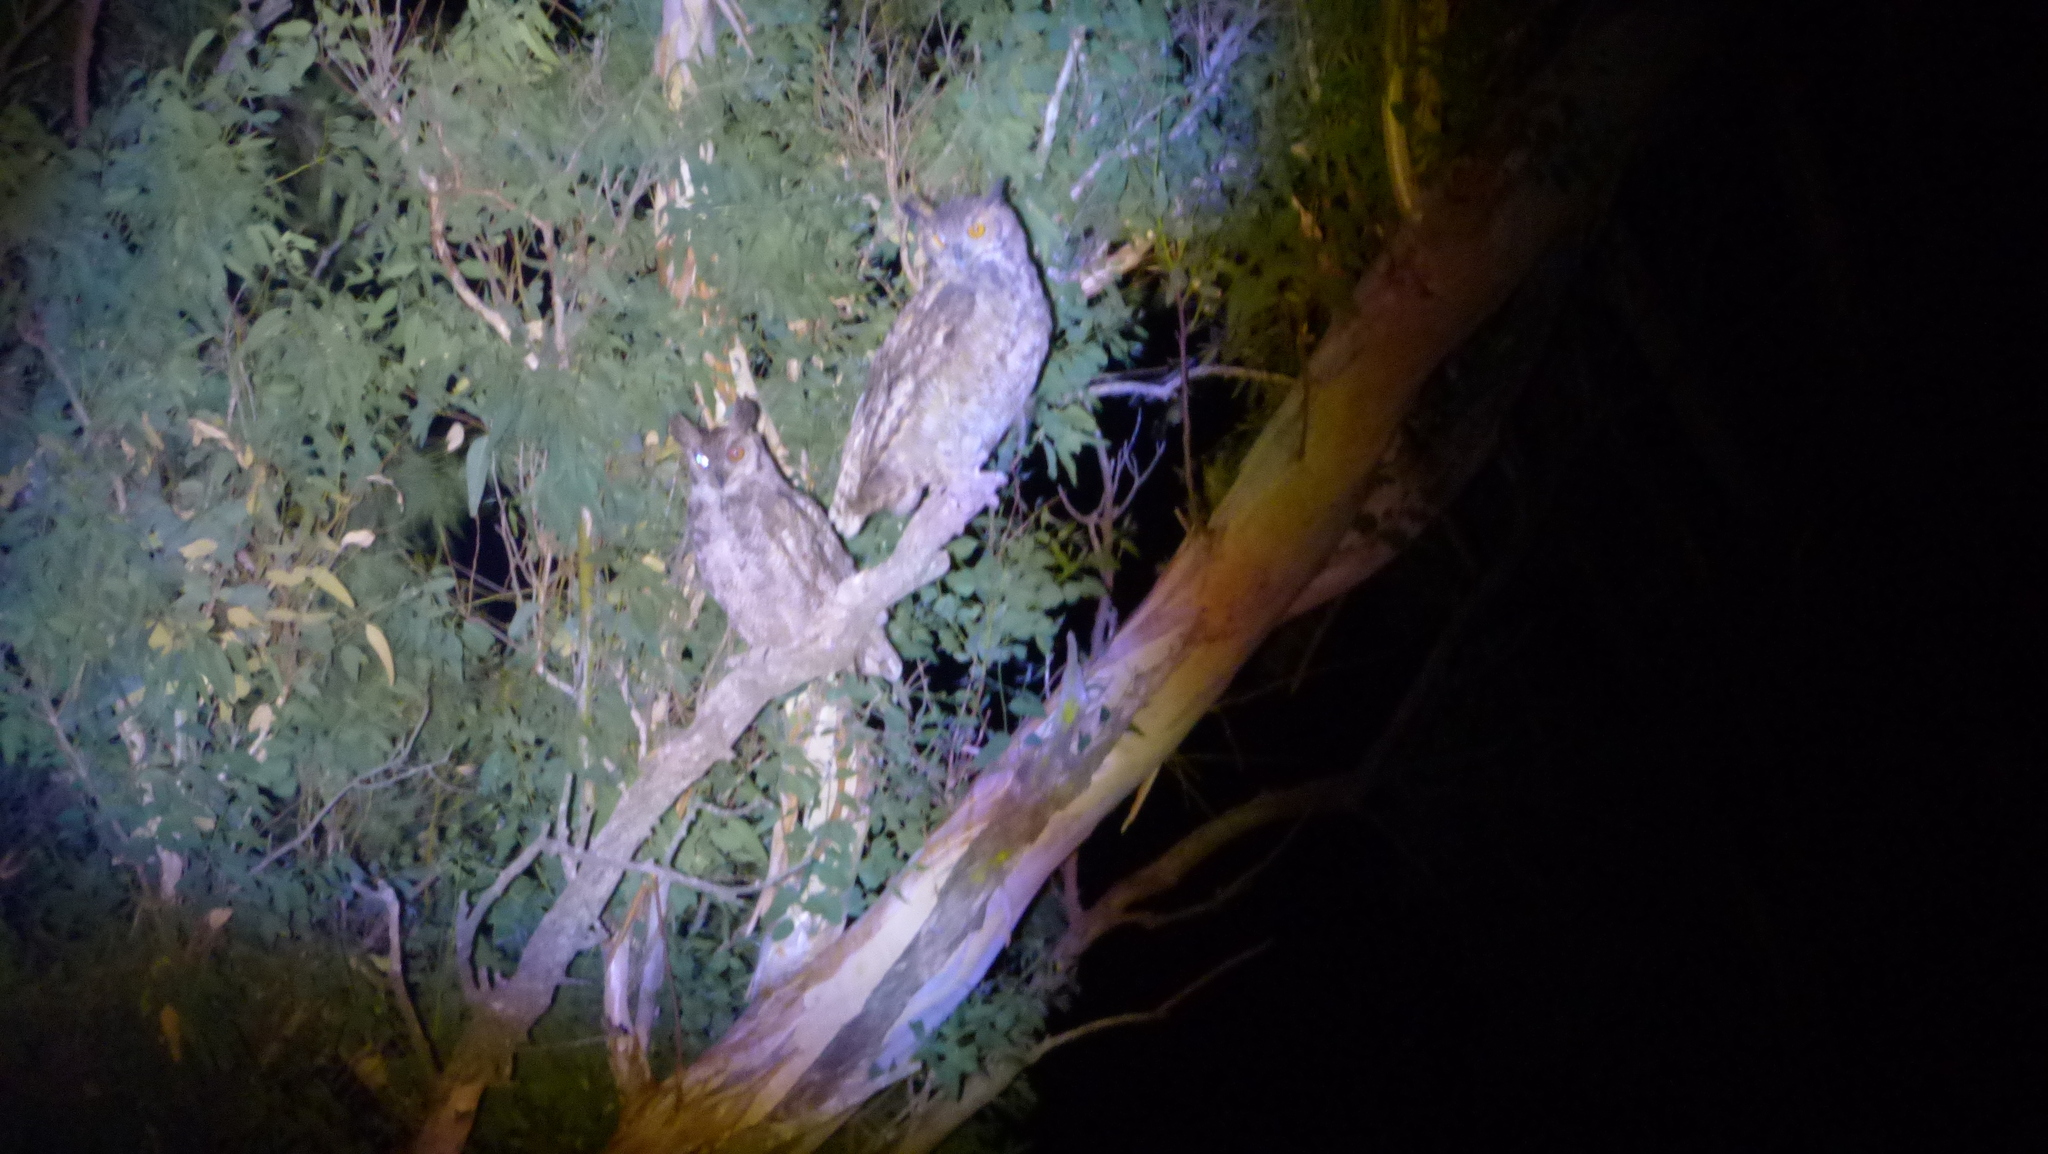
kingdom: Animalia
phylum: Chordata
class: Aves
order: Strigiformes
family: Strigidae
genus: Bubo
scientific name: Bubo virginianus
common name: Great horned owl
